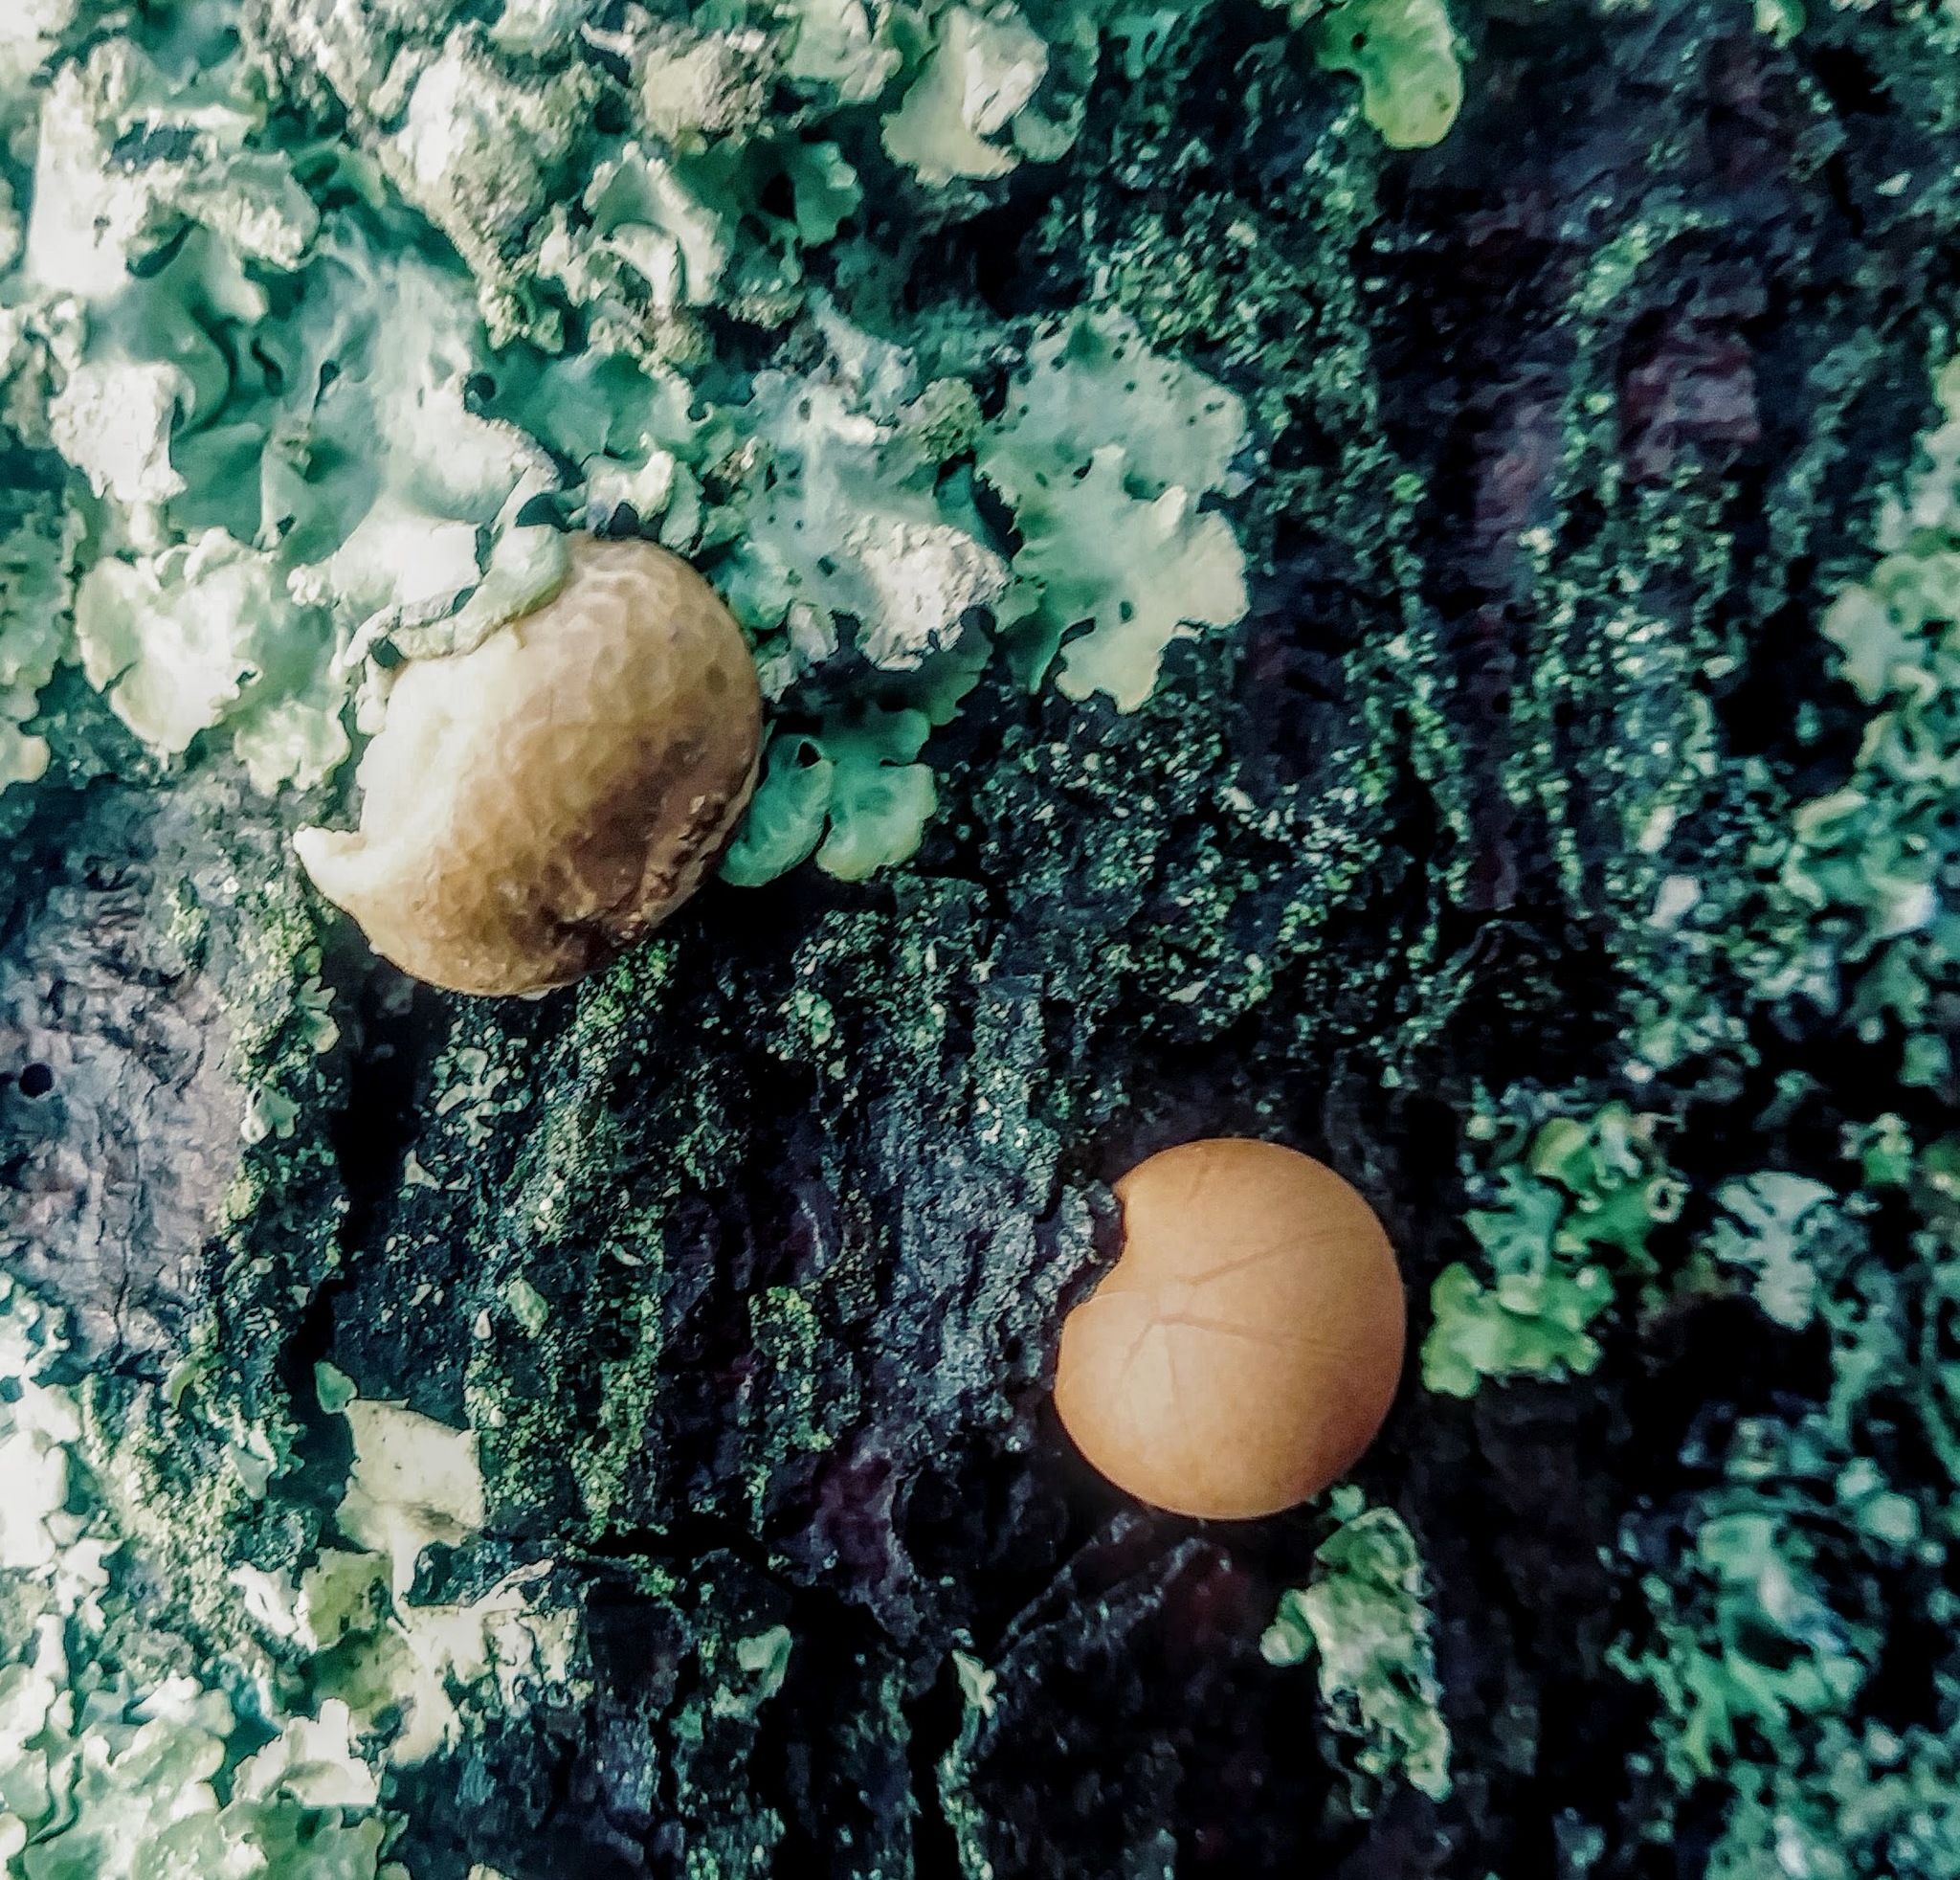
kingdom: Fungi
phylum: Basidiomycota
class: Agaricomycetes
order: Polyporales
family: Polyporaceae
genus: Cryptoporus
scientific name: Cryptoporus volvatus
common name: Veiled polypore
